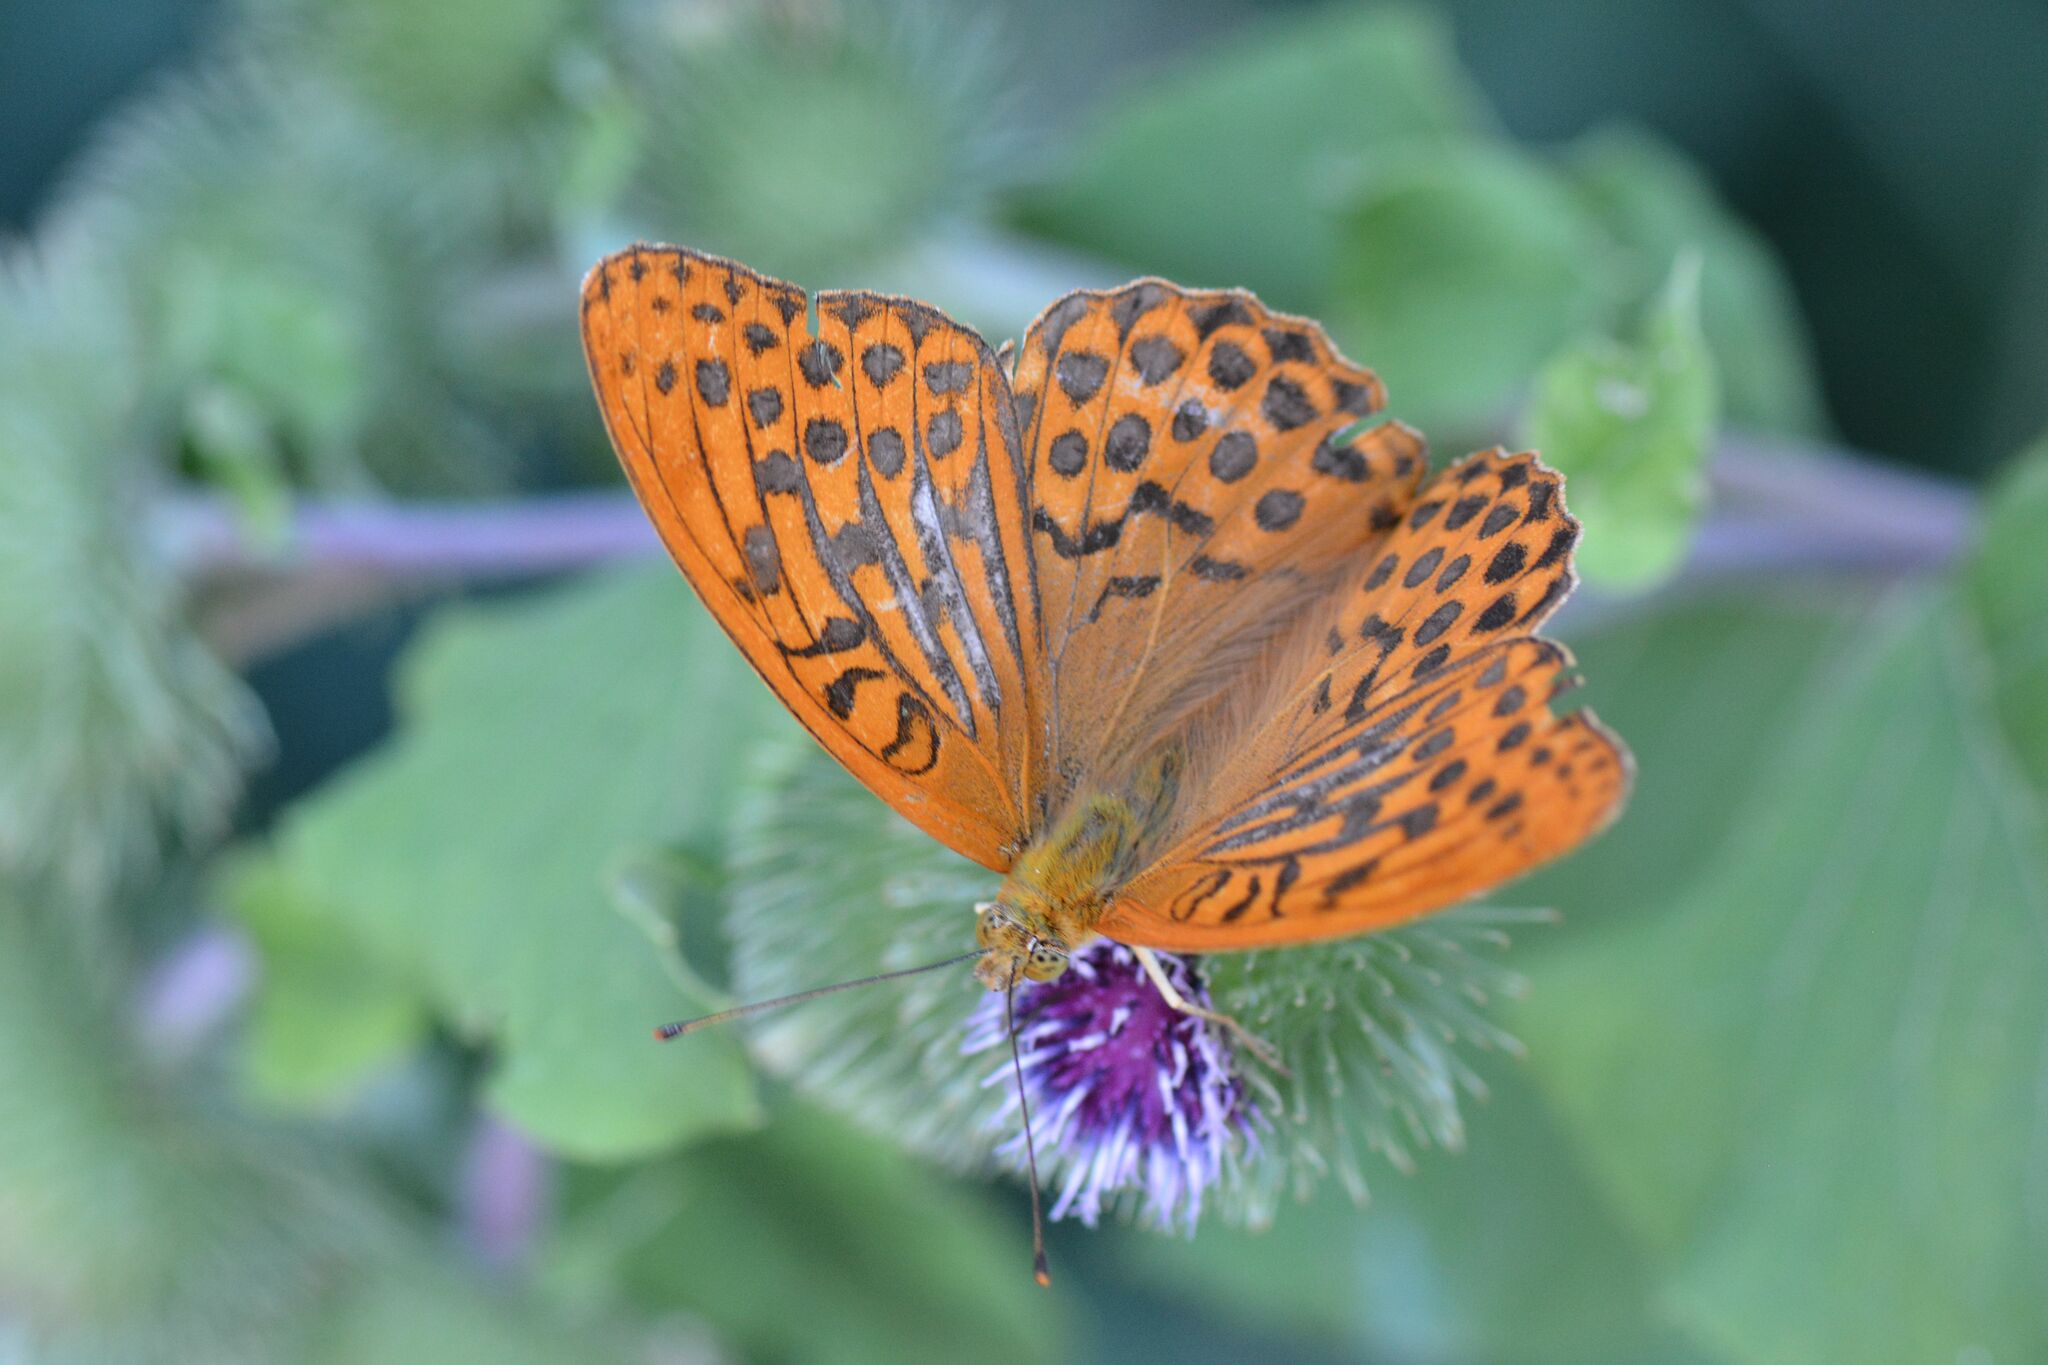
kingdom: Animalia
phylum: Arthropoda
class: Insecta
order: Lepidoptera
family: Nymphalidae
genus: Argynnis
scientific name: Argynnis paphia
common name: Silver-washed fritillary
